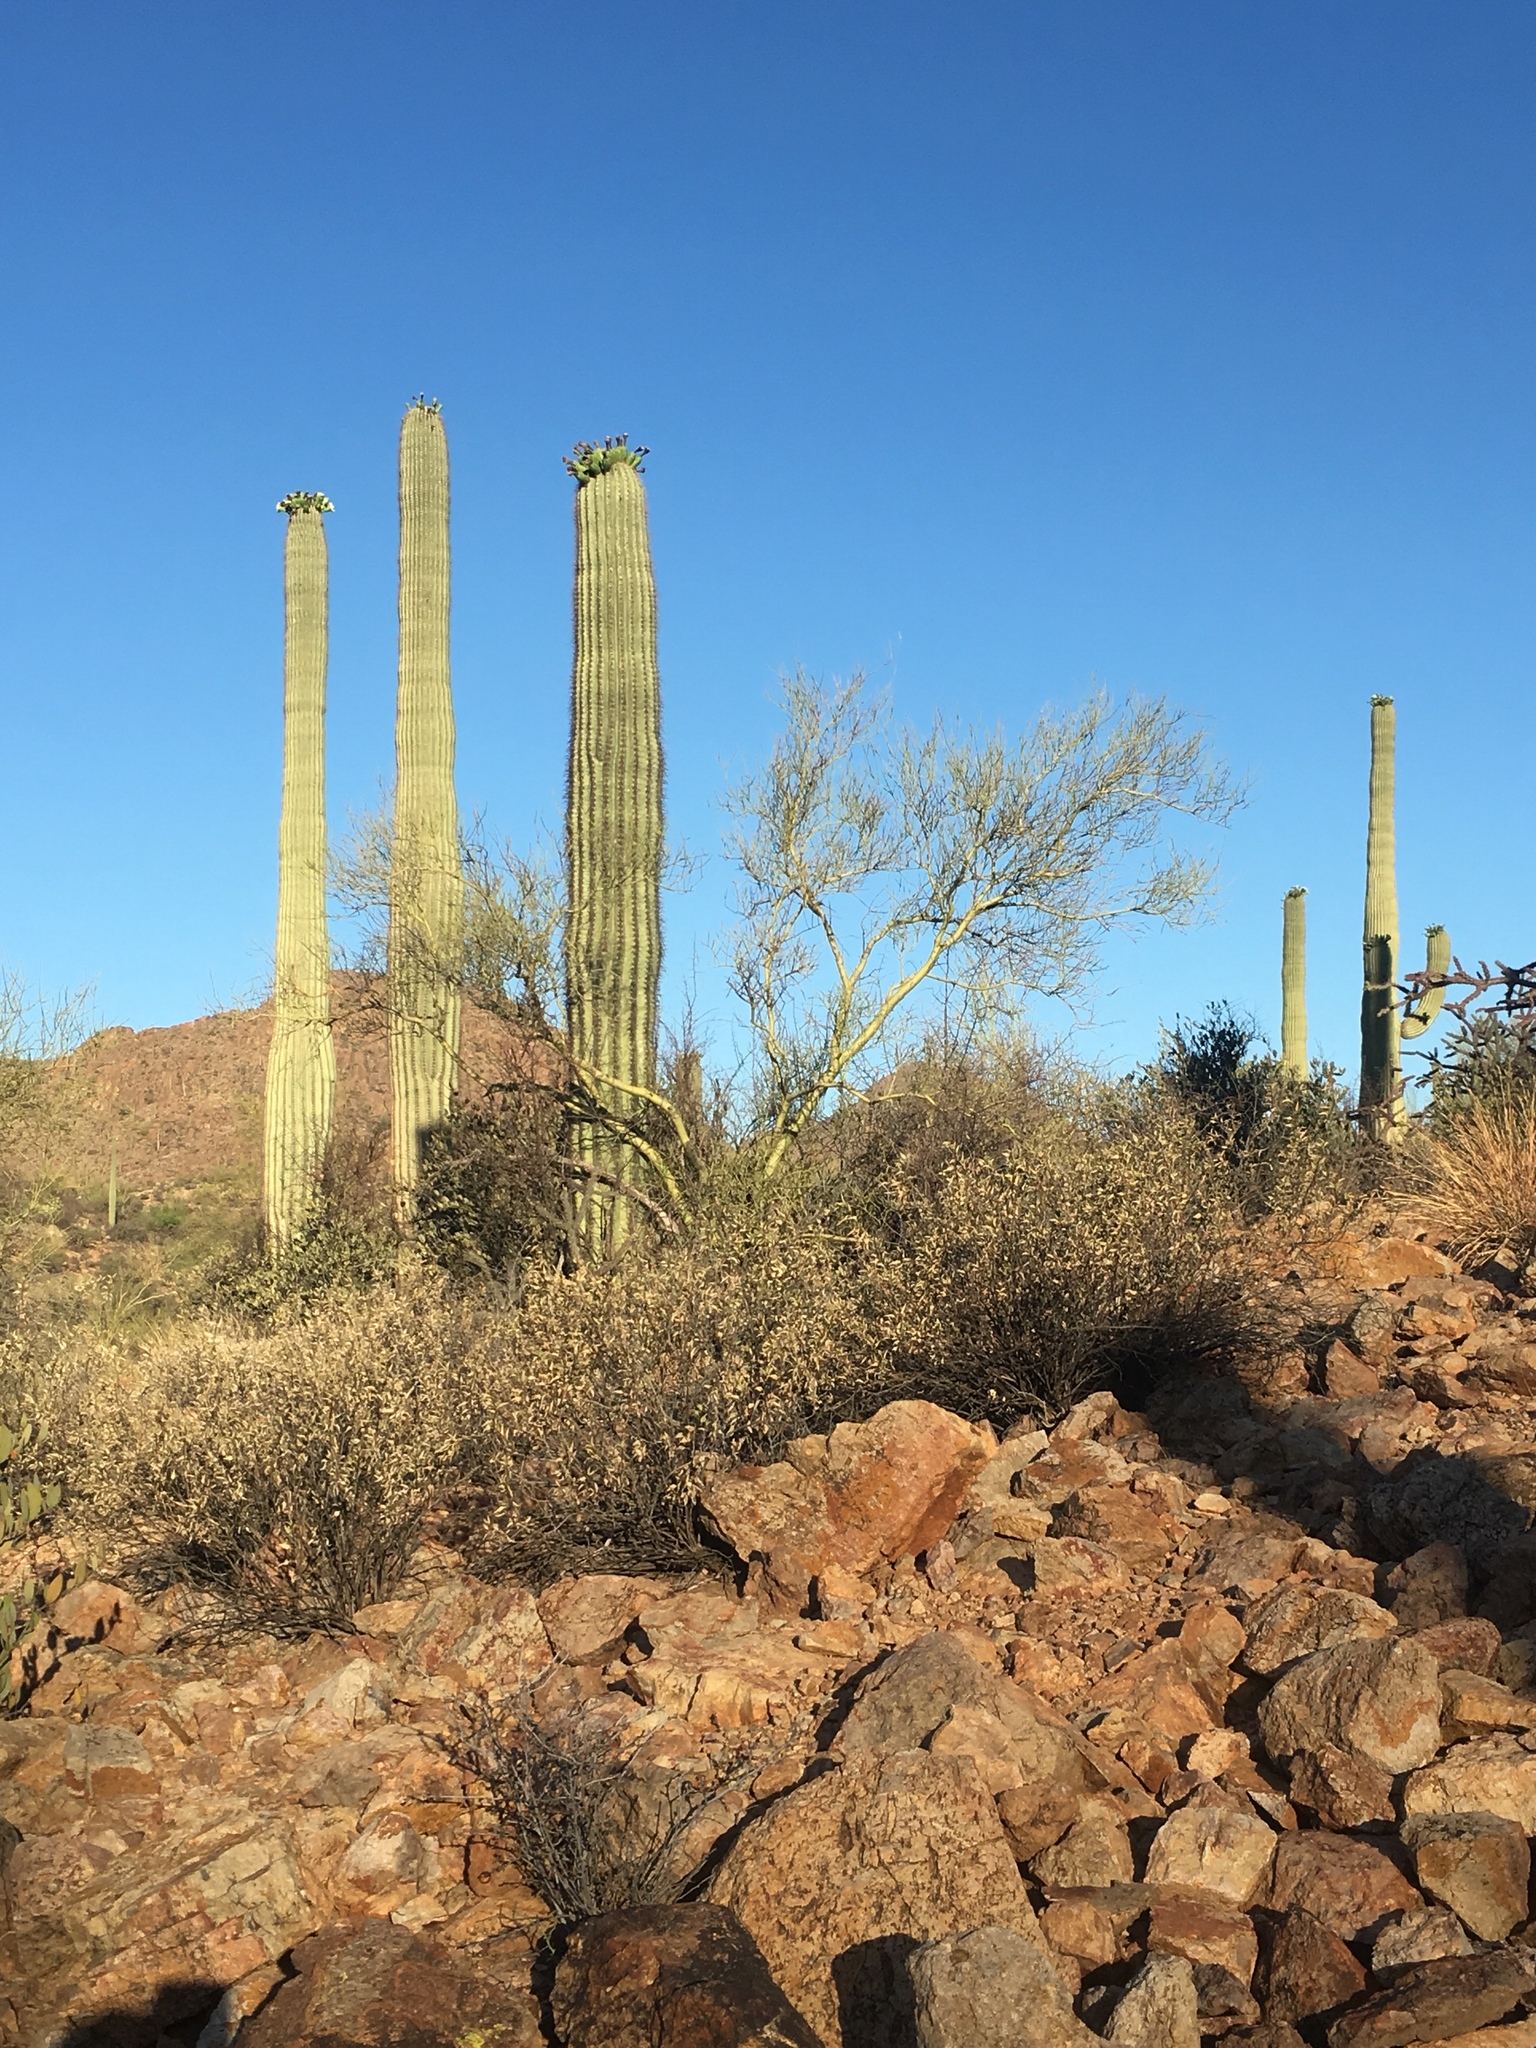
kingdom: Plantae
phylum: Tracheophyta
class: Magnoliopsida
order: Caryophyllales
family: Cactaceae
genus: Carnegiea
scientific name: Carnegiea gigantea
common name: Saguaro
